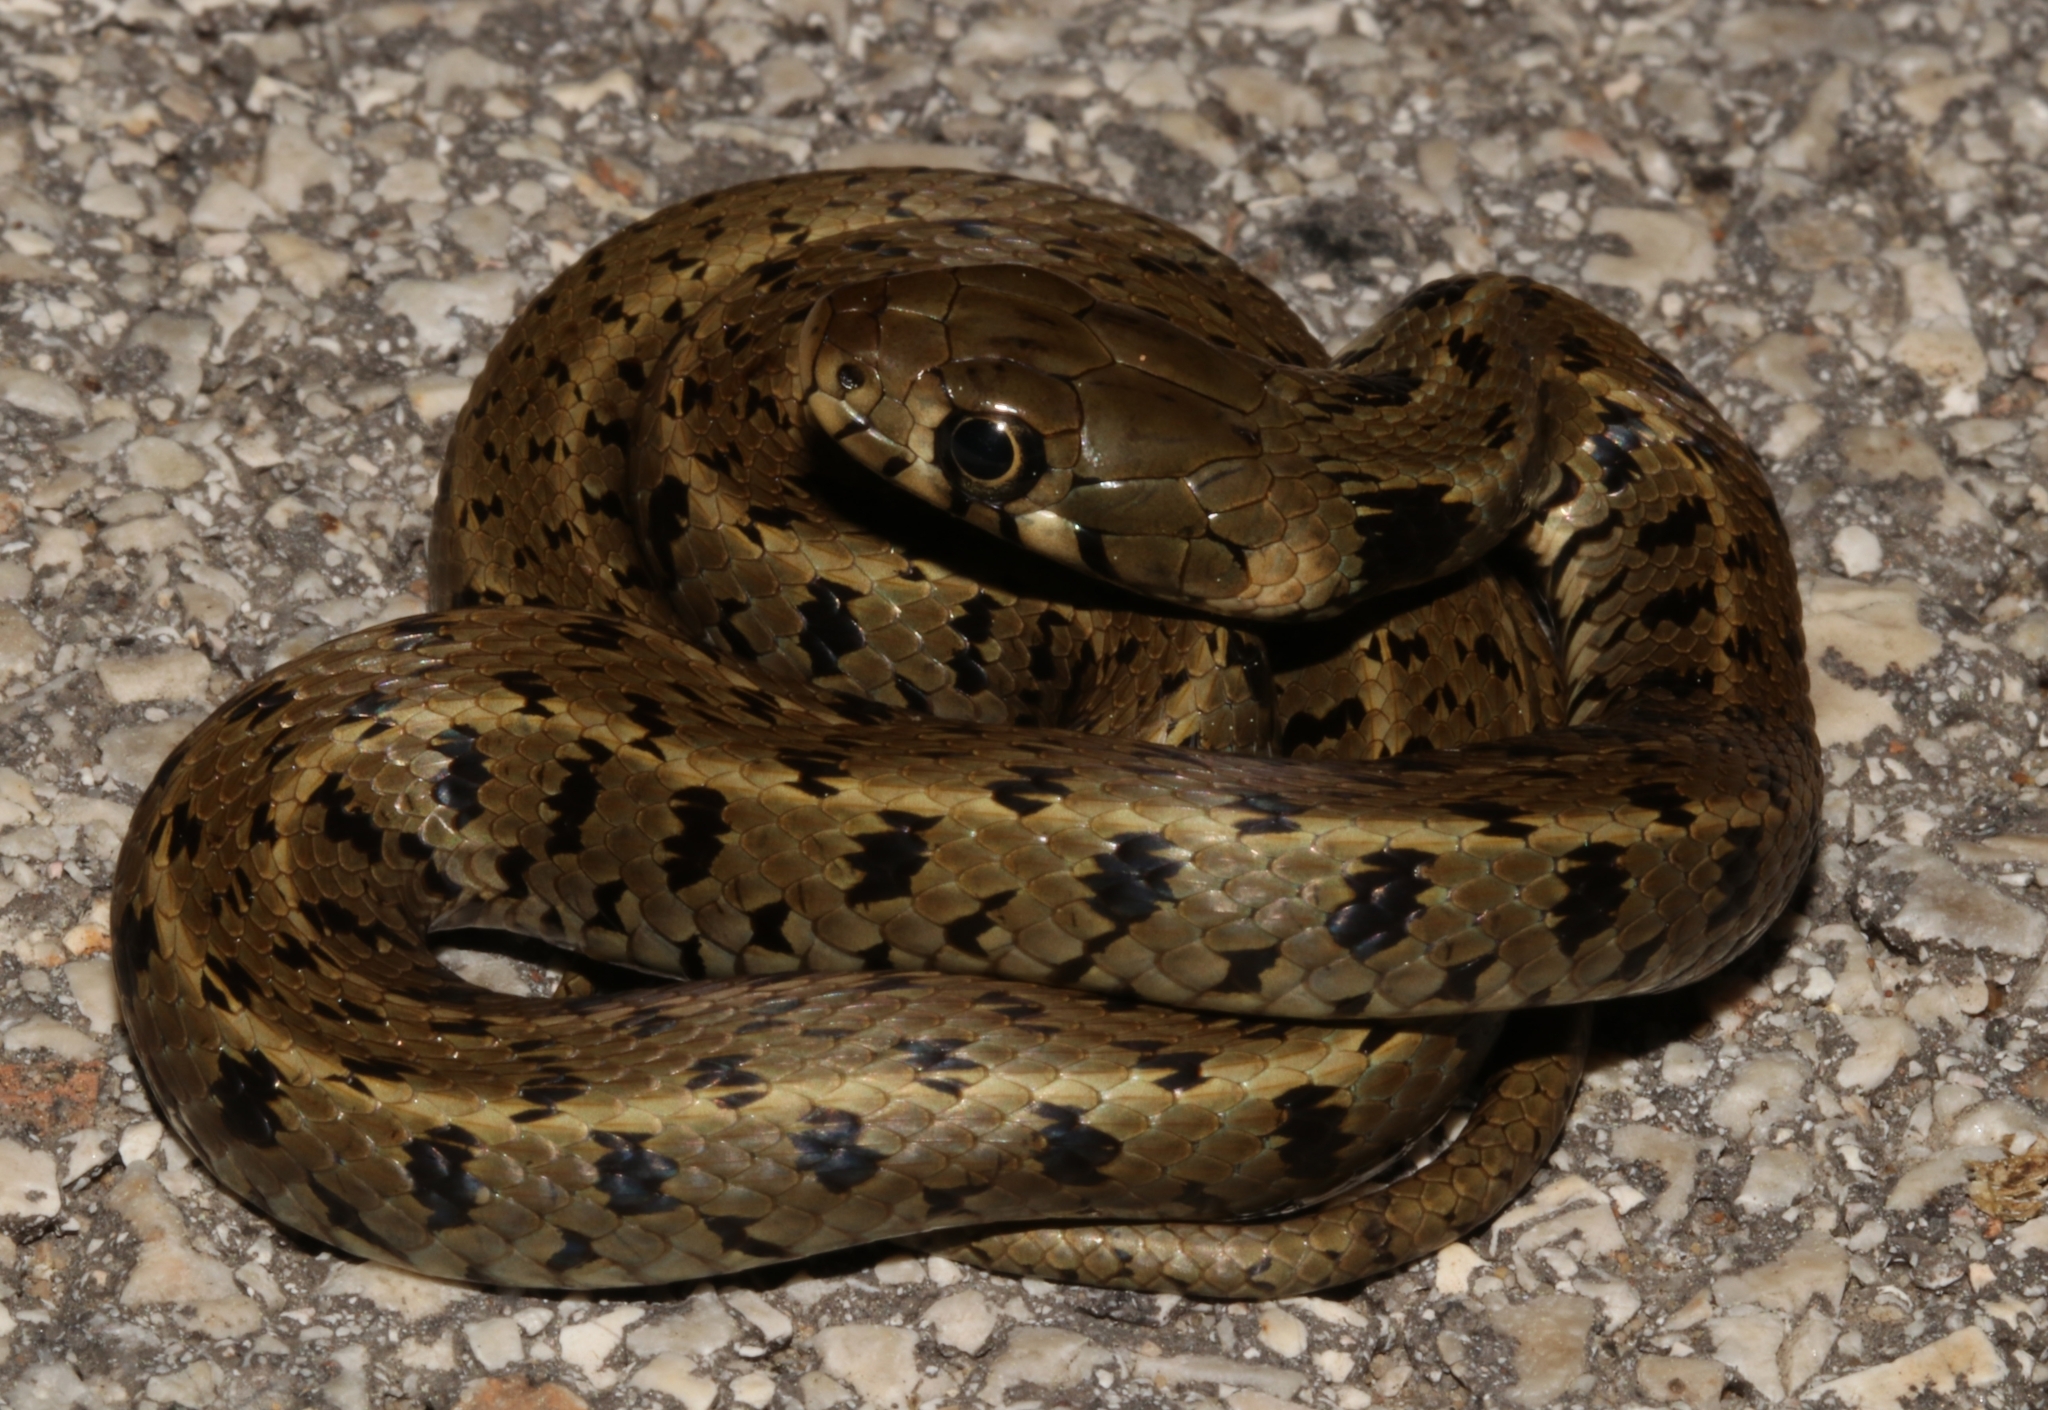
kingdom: Animalia
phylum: Chordata
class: Squamata
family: Colubridae
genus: Natrix
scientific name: Natrix natrix
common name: Grass snake
